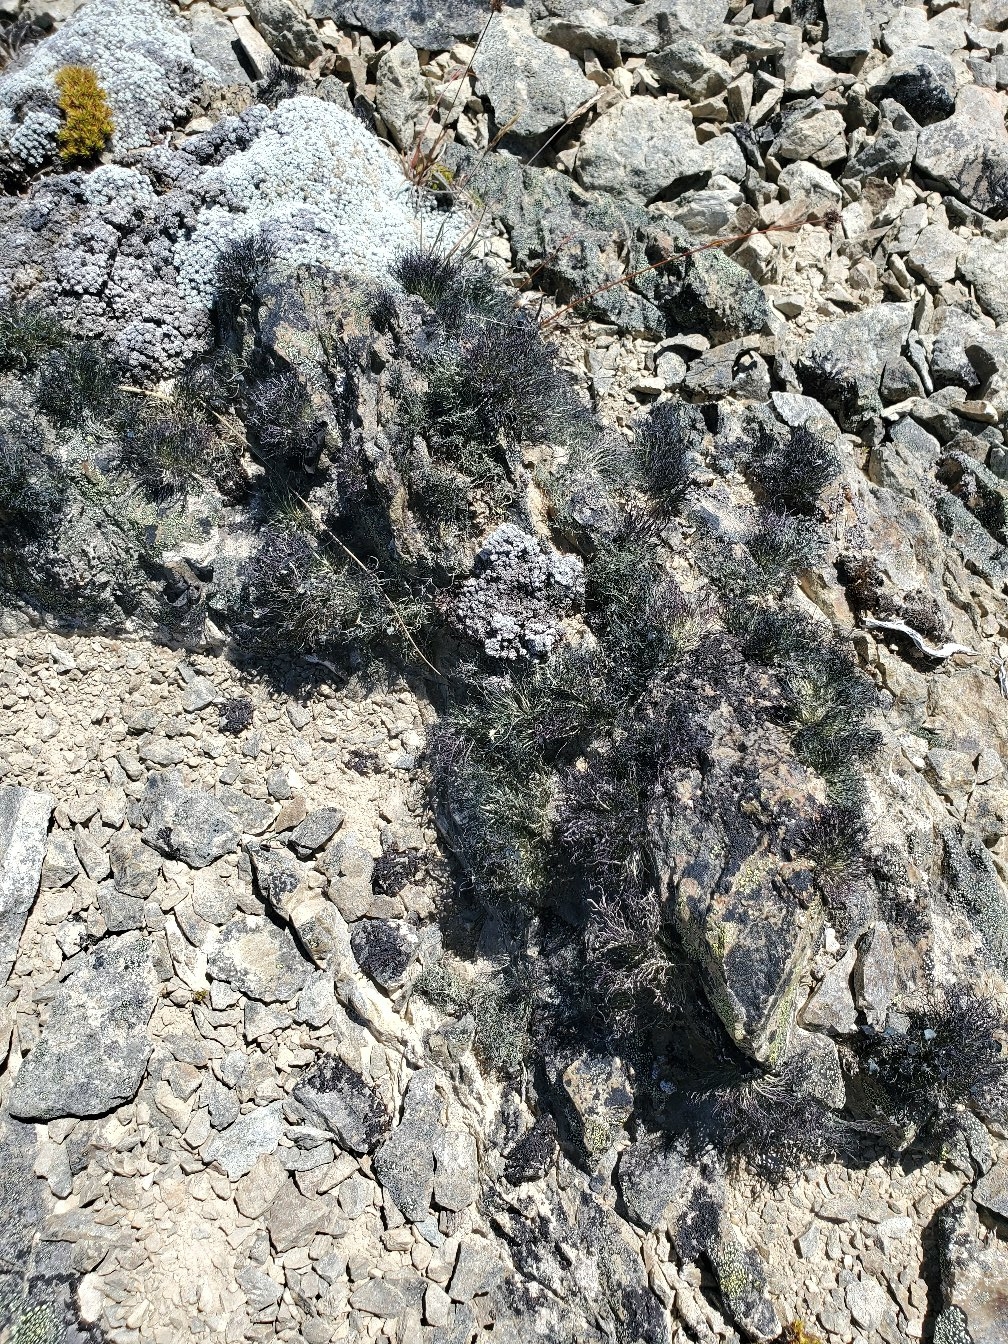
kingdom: Fungi
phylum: Ascomycota
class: Lecanoromycetes
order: Lecanorales
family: Parmeliaceae
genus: Usnea
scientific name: Usnea acromelana
